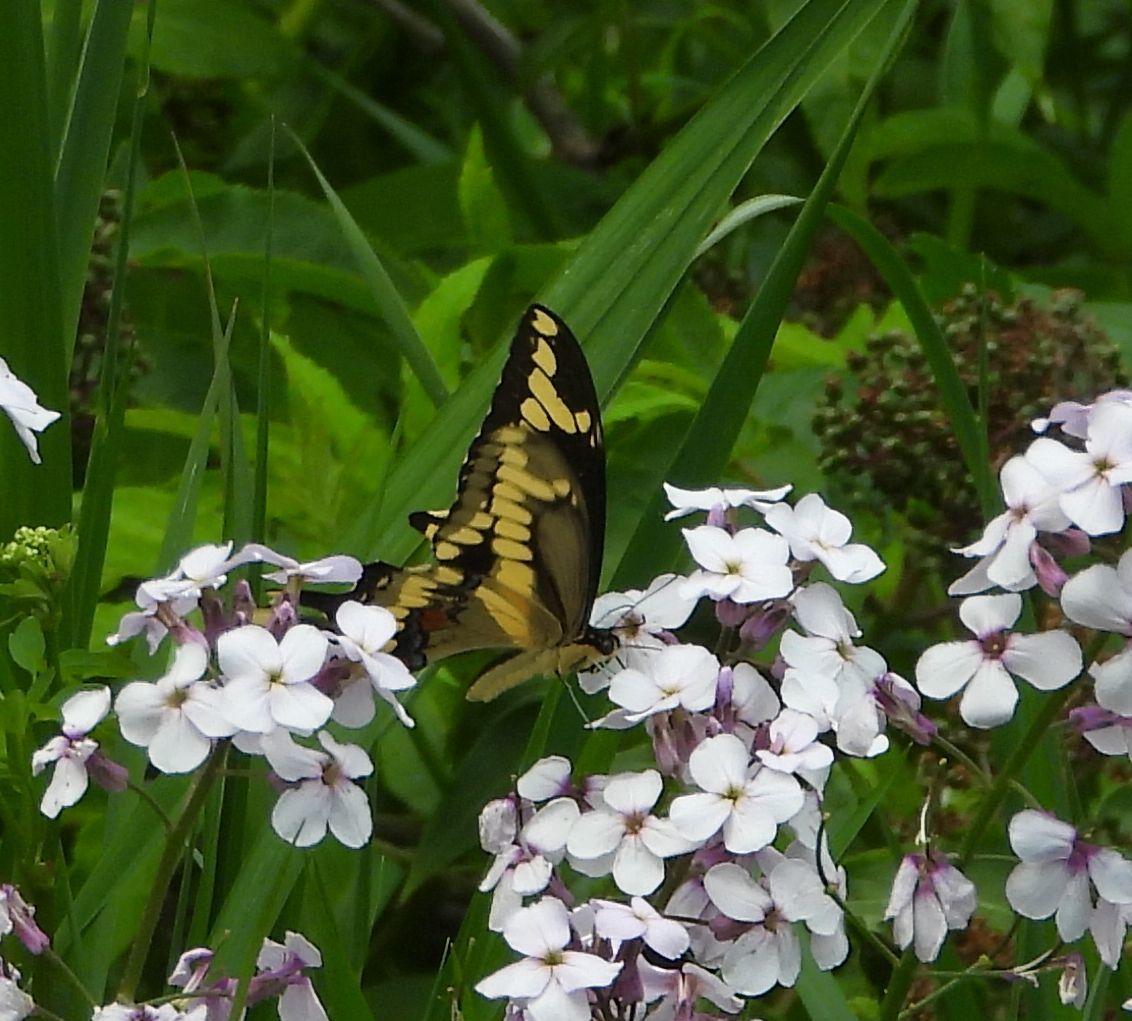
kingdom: Animalia
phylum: Arthropoda
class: Insecta
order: Lepidoptera
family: Papilionidae
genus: Papilio
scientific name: Papilio cresphontes
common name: Giant swallowtail
